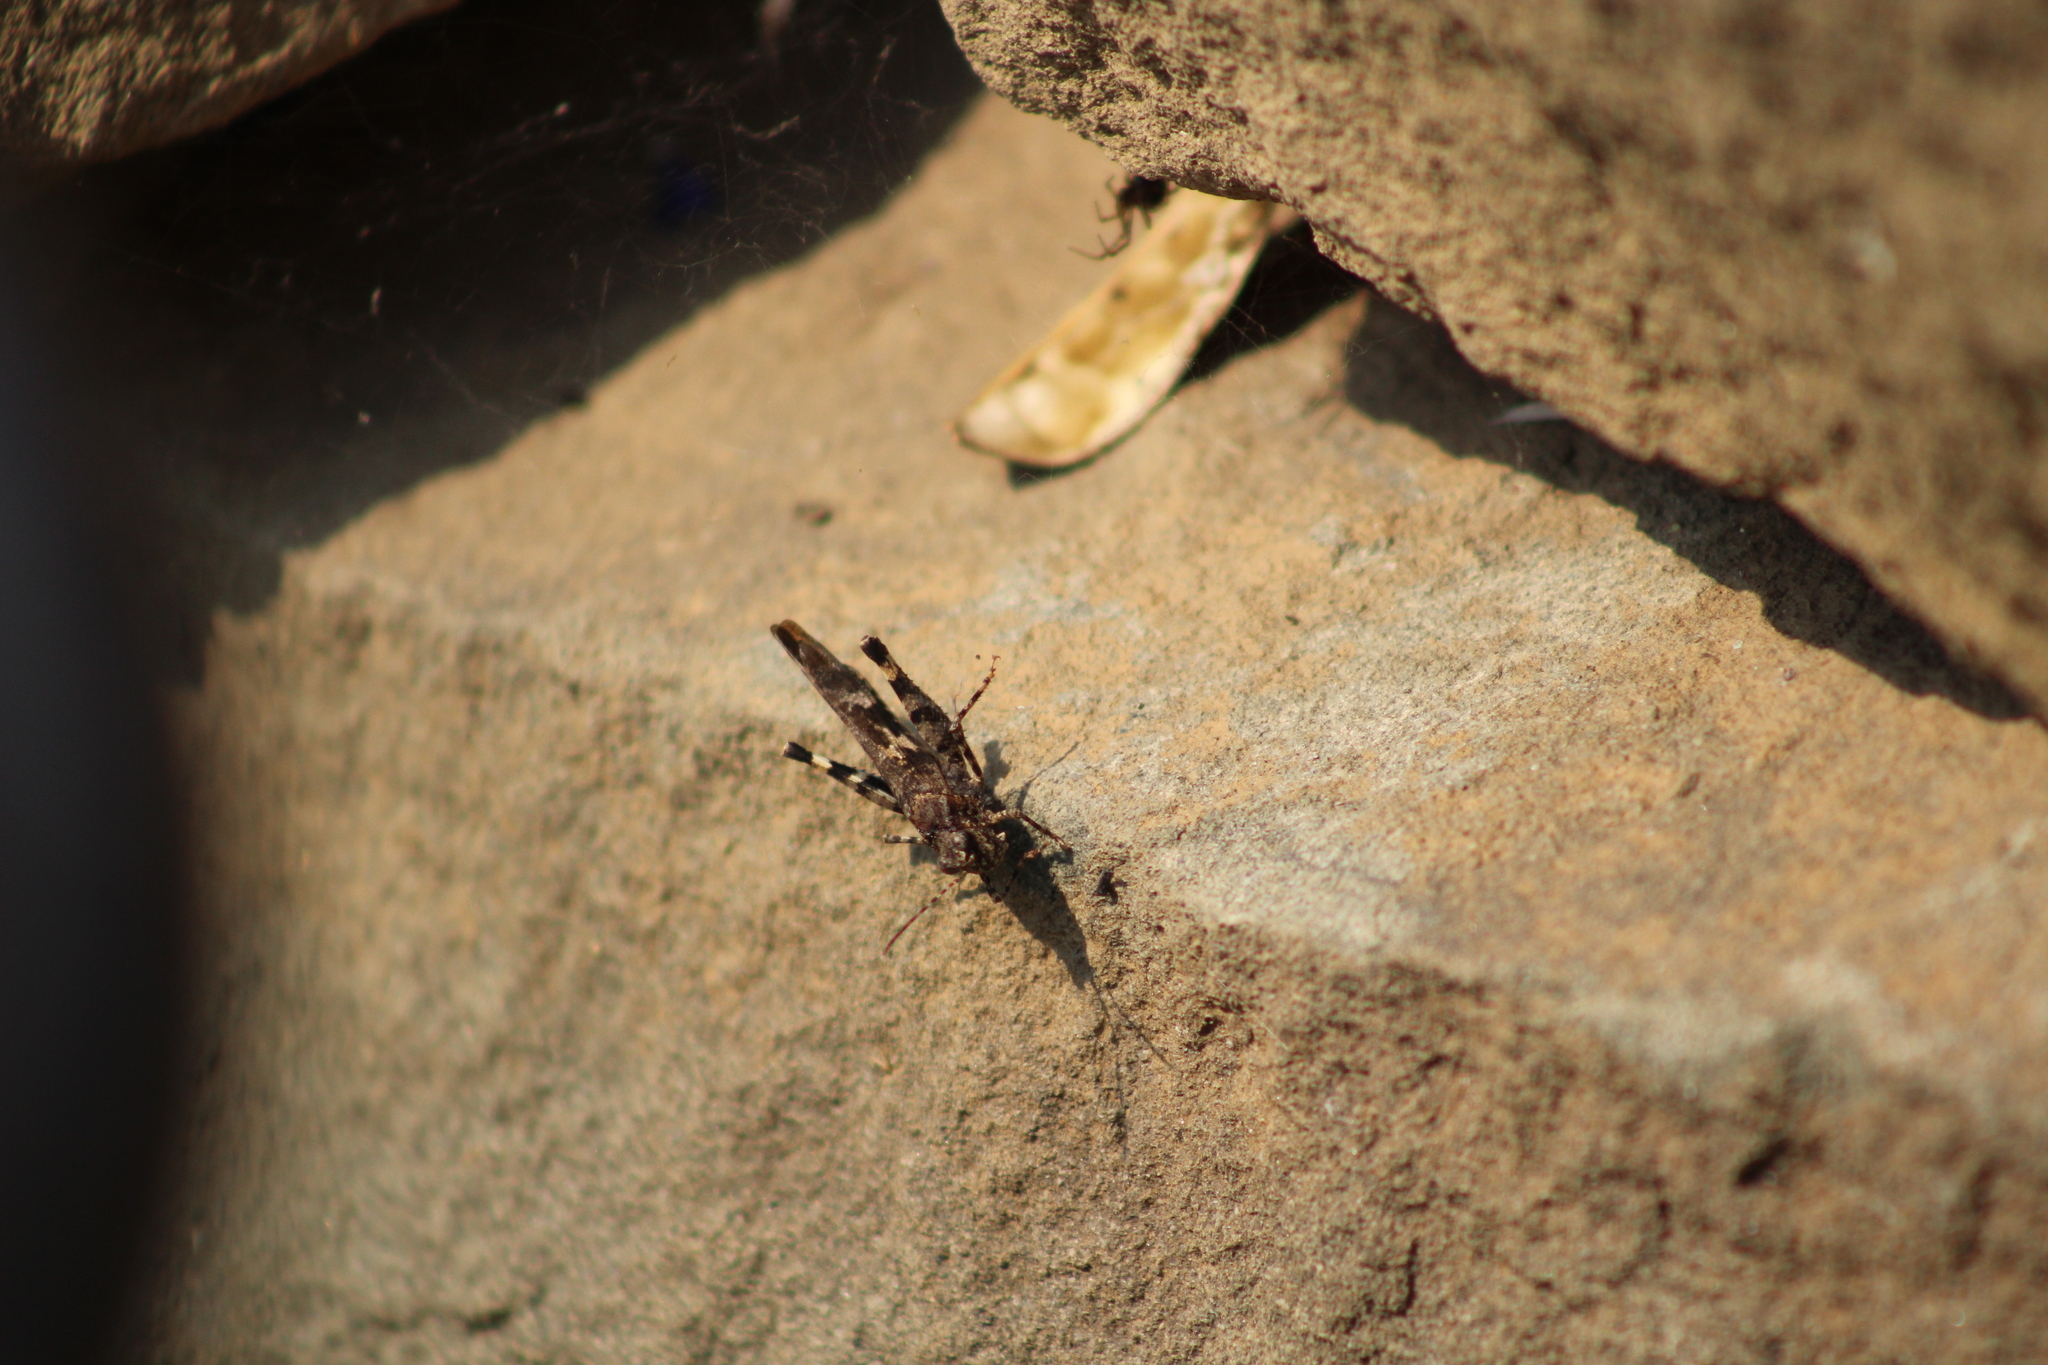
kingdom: Animalia
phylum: Arthropoda
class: Insecta
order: Orthoptera
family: Acrididae
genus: Trimerotropis
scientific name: Trimerotropis fontana
